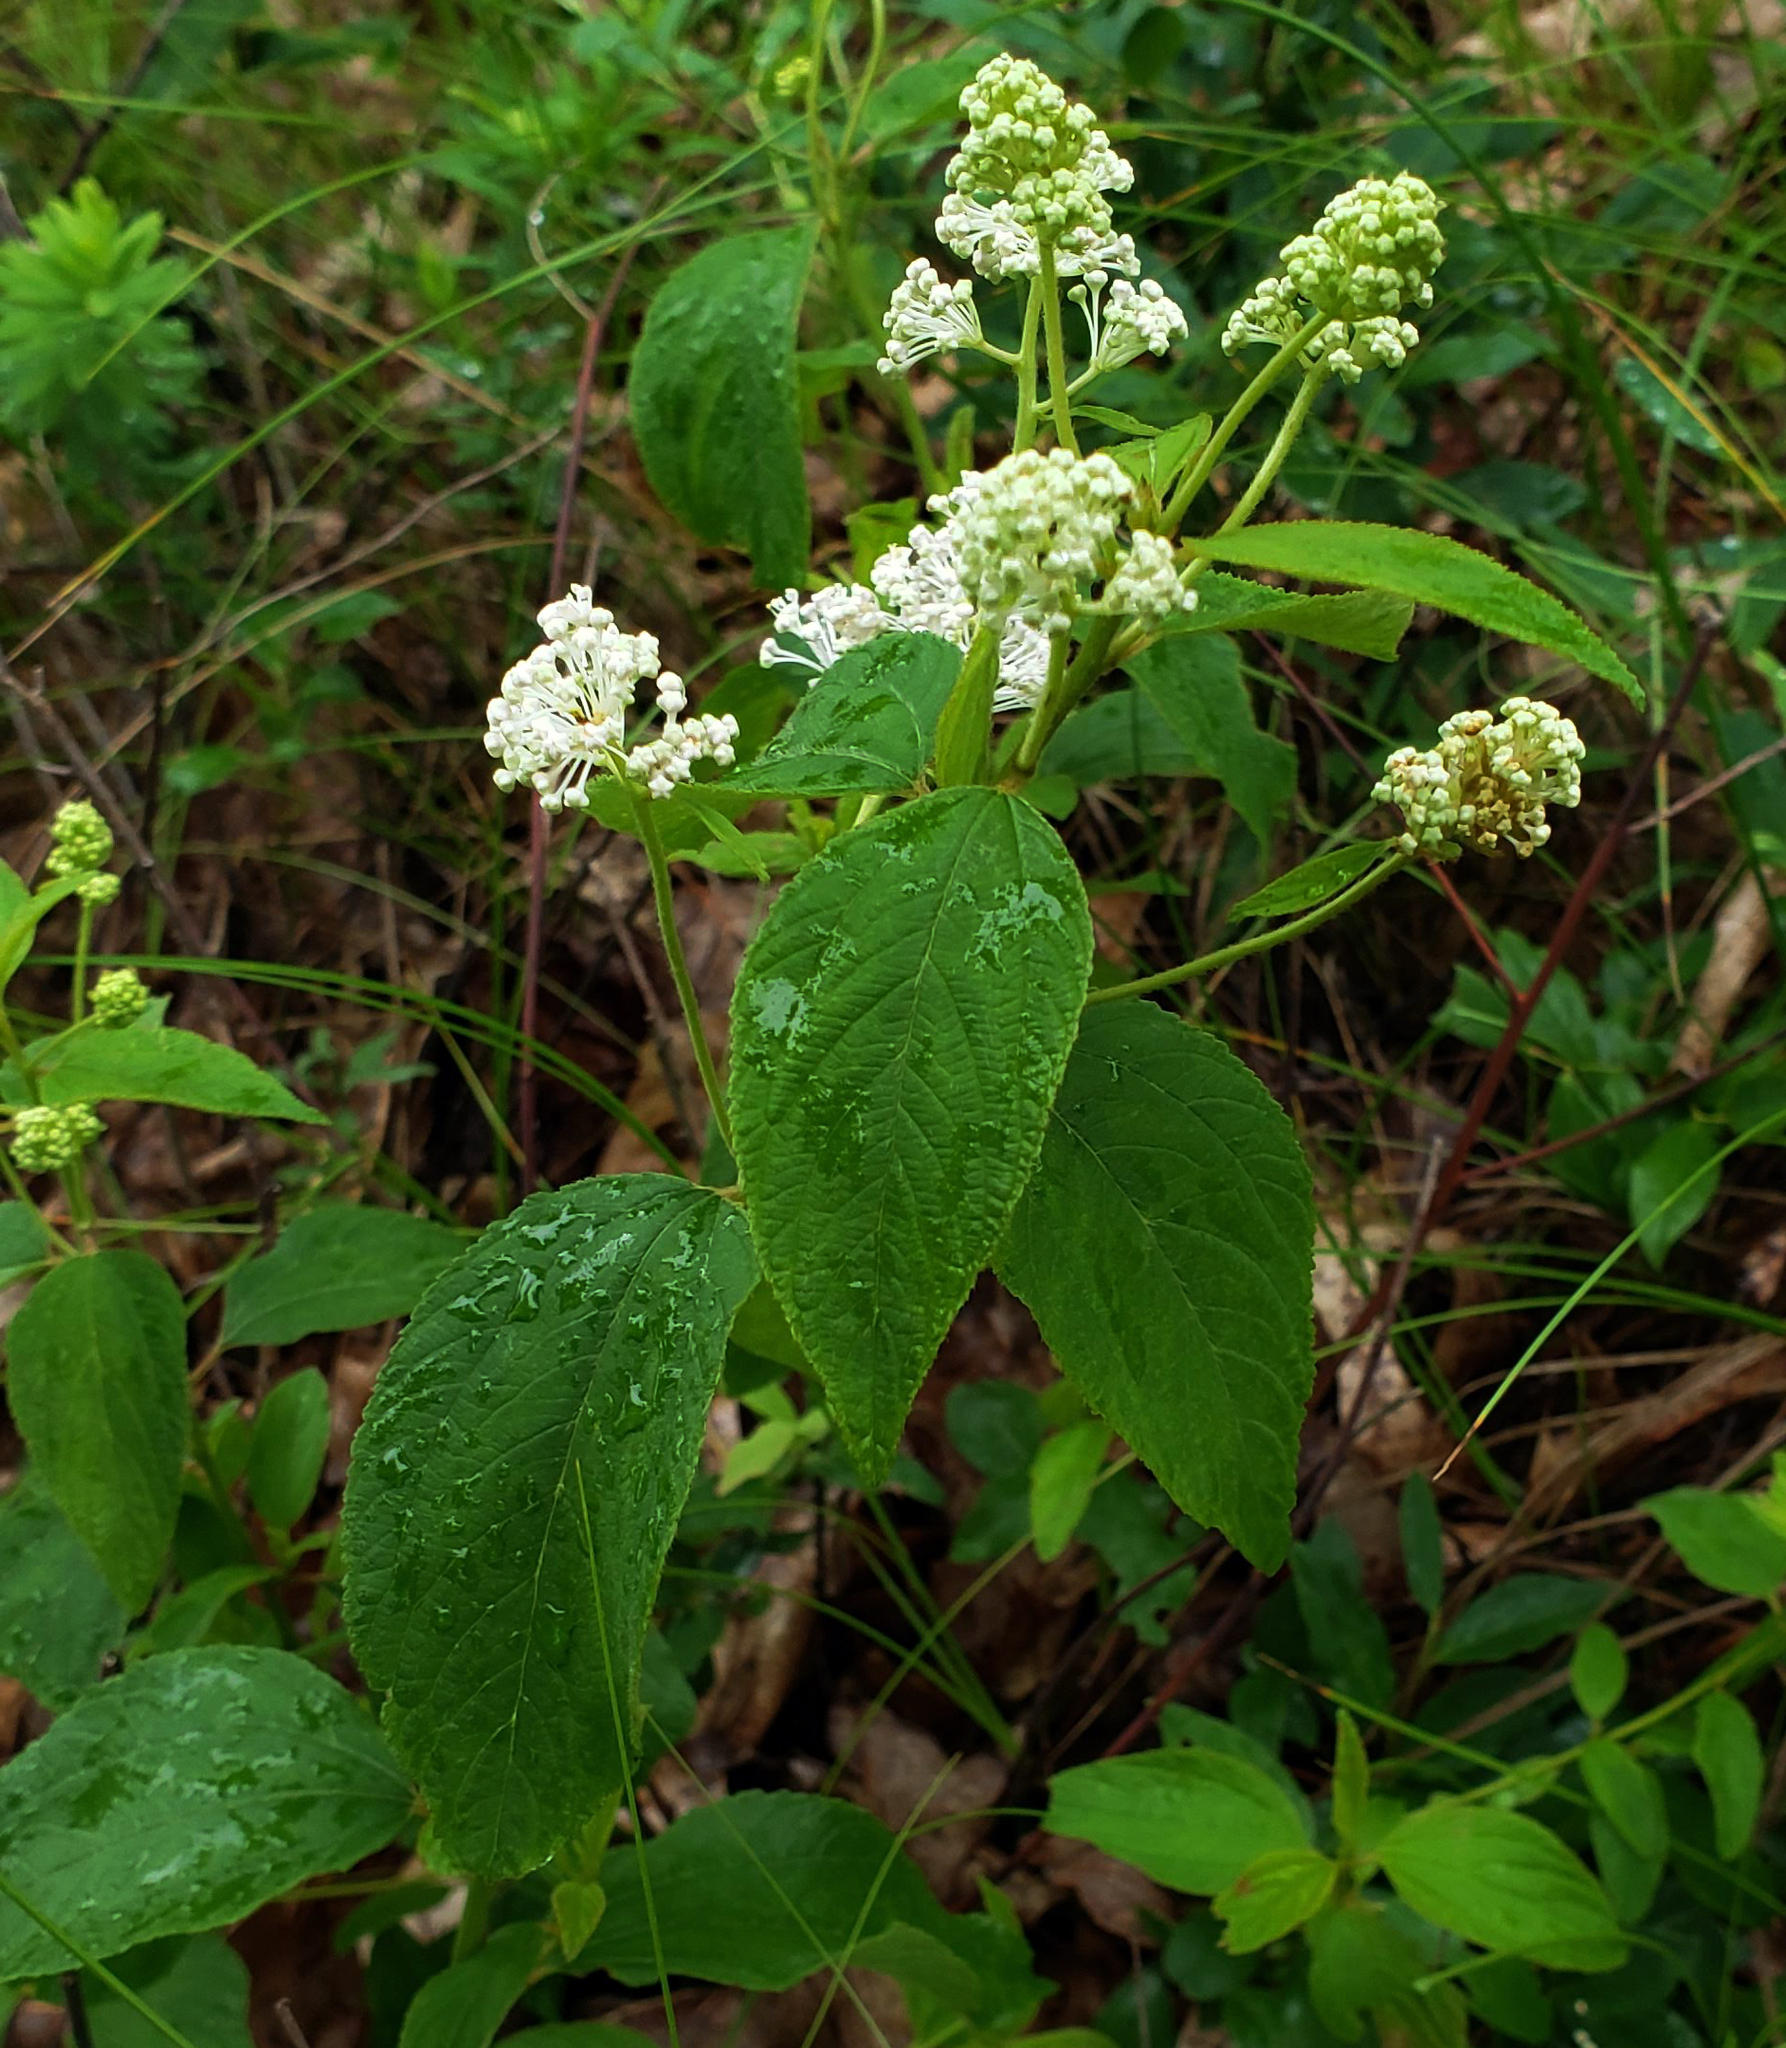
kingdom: Plantae
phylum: Tracheophyta
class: Magnoliopsida
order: Rosales
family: Rhamnaceae
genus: Ceanothus
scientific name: Ceanothus americanus
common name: Redroot
